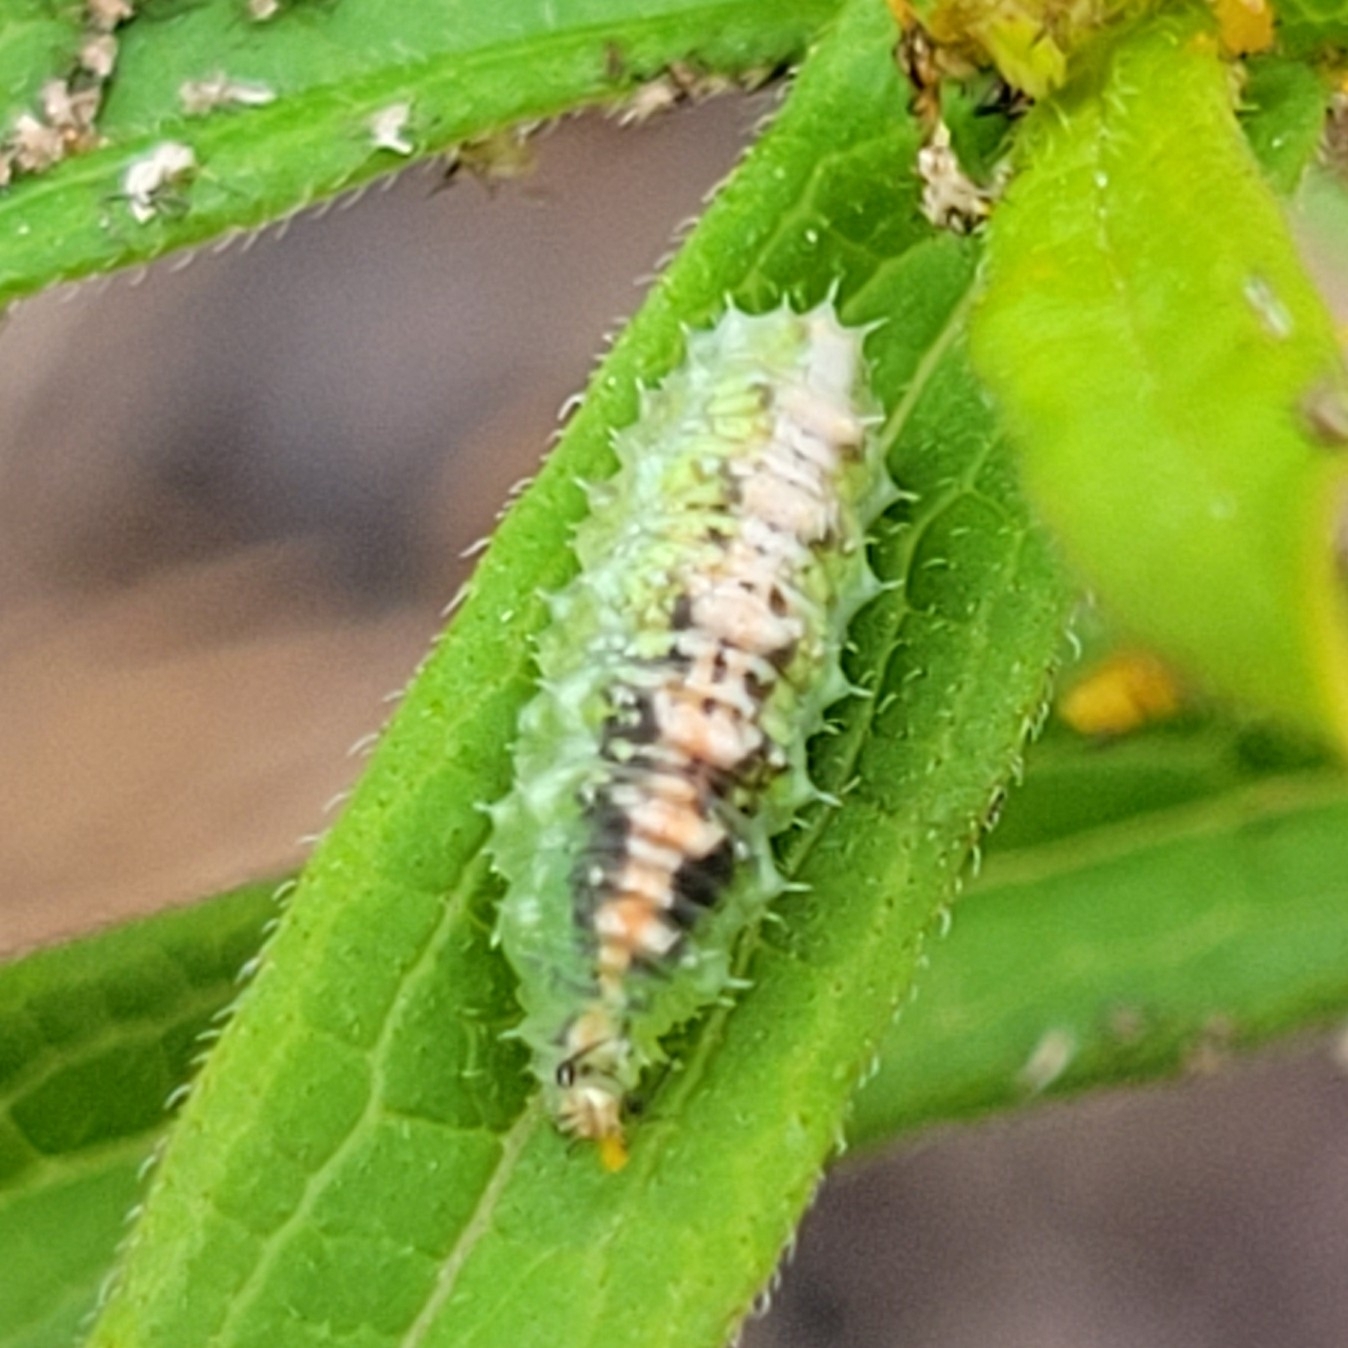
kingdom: Animalia
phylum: Arthropoda
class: Insecta
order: Diptera
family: Syrphidae
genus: Dioprosopa
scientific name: Dioprosopa clavatus
